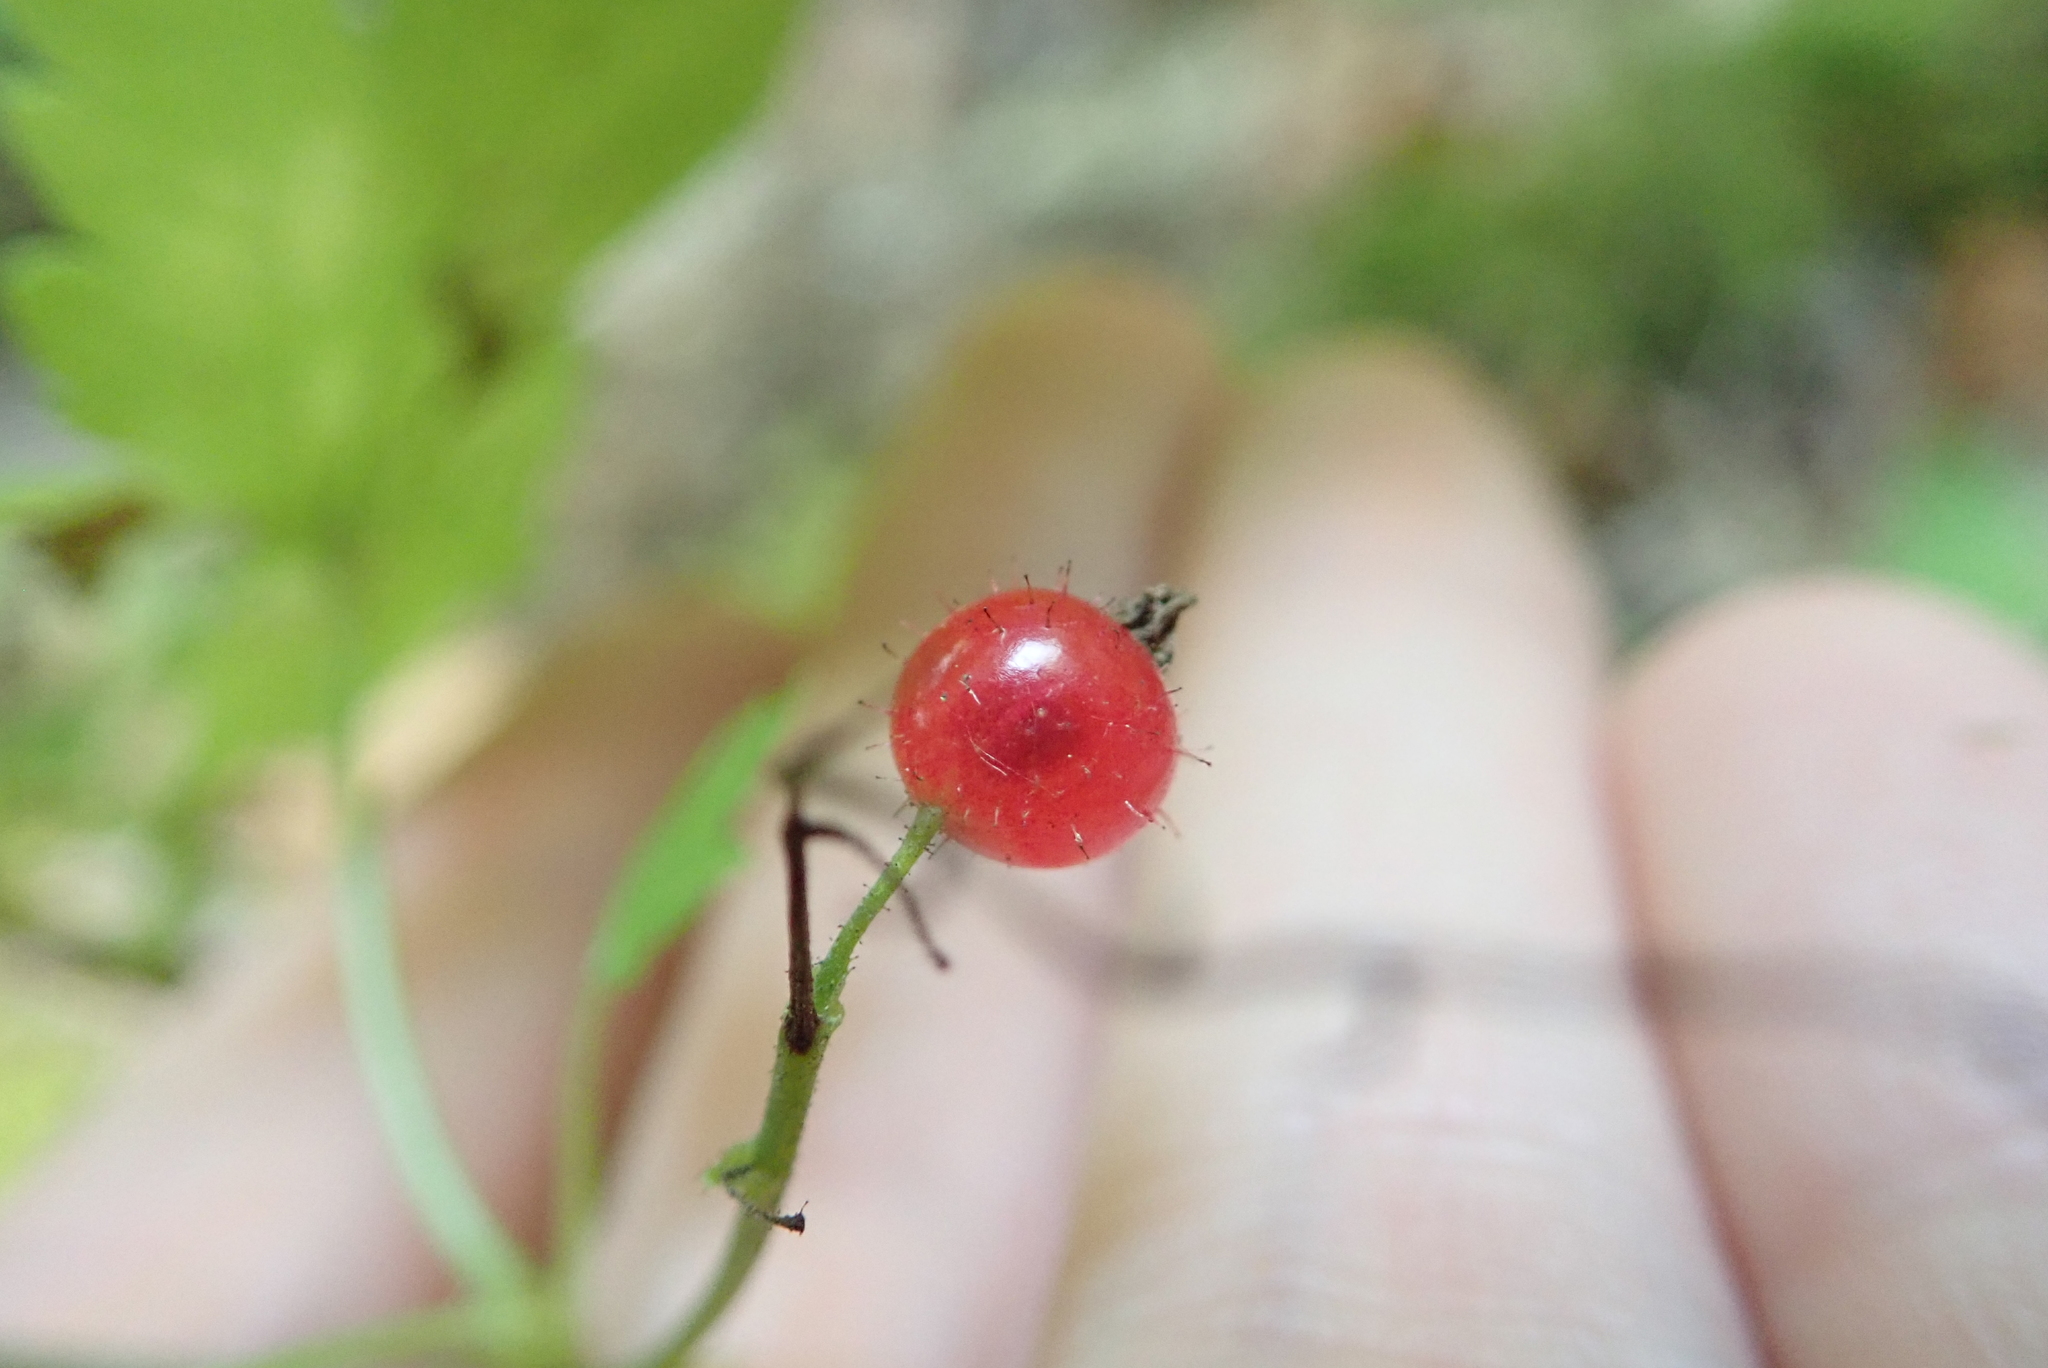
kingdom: Plantae
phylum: Tracheophyta
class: Magnoliopsida
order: Saxifragales
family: Grossulariaceae
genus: Ribes
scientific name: Ribes glandulosum
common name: Skunk currant
